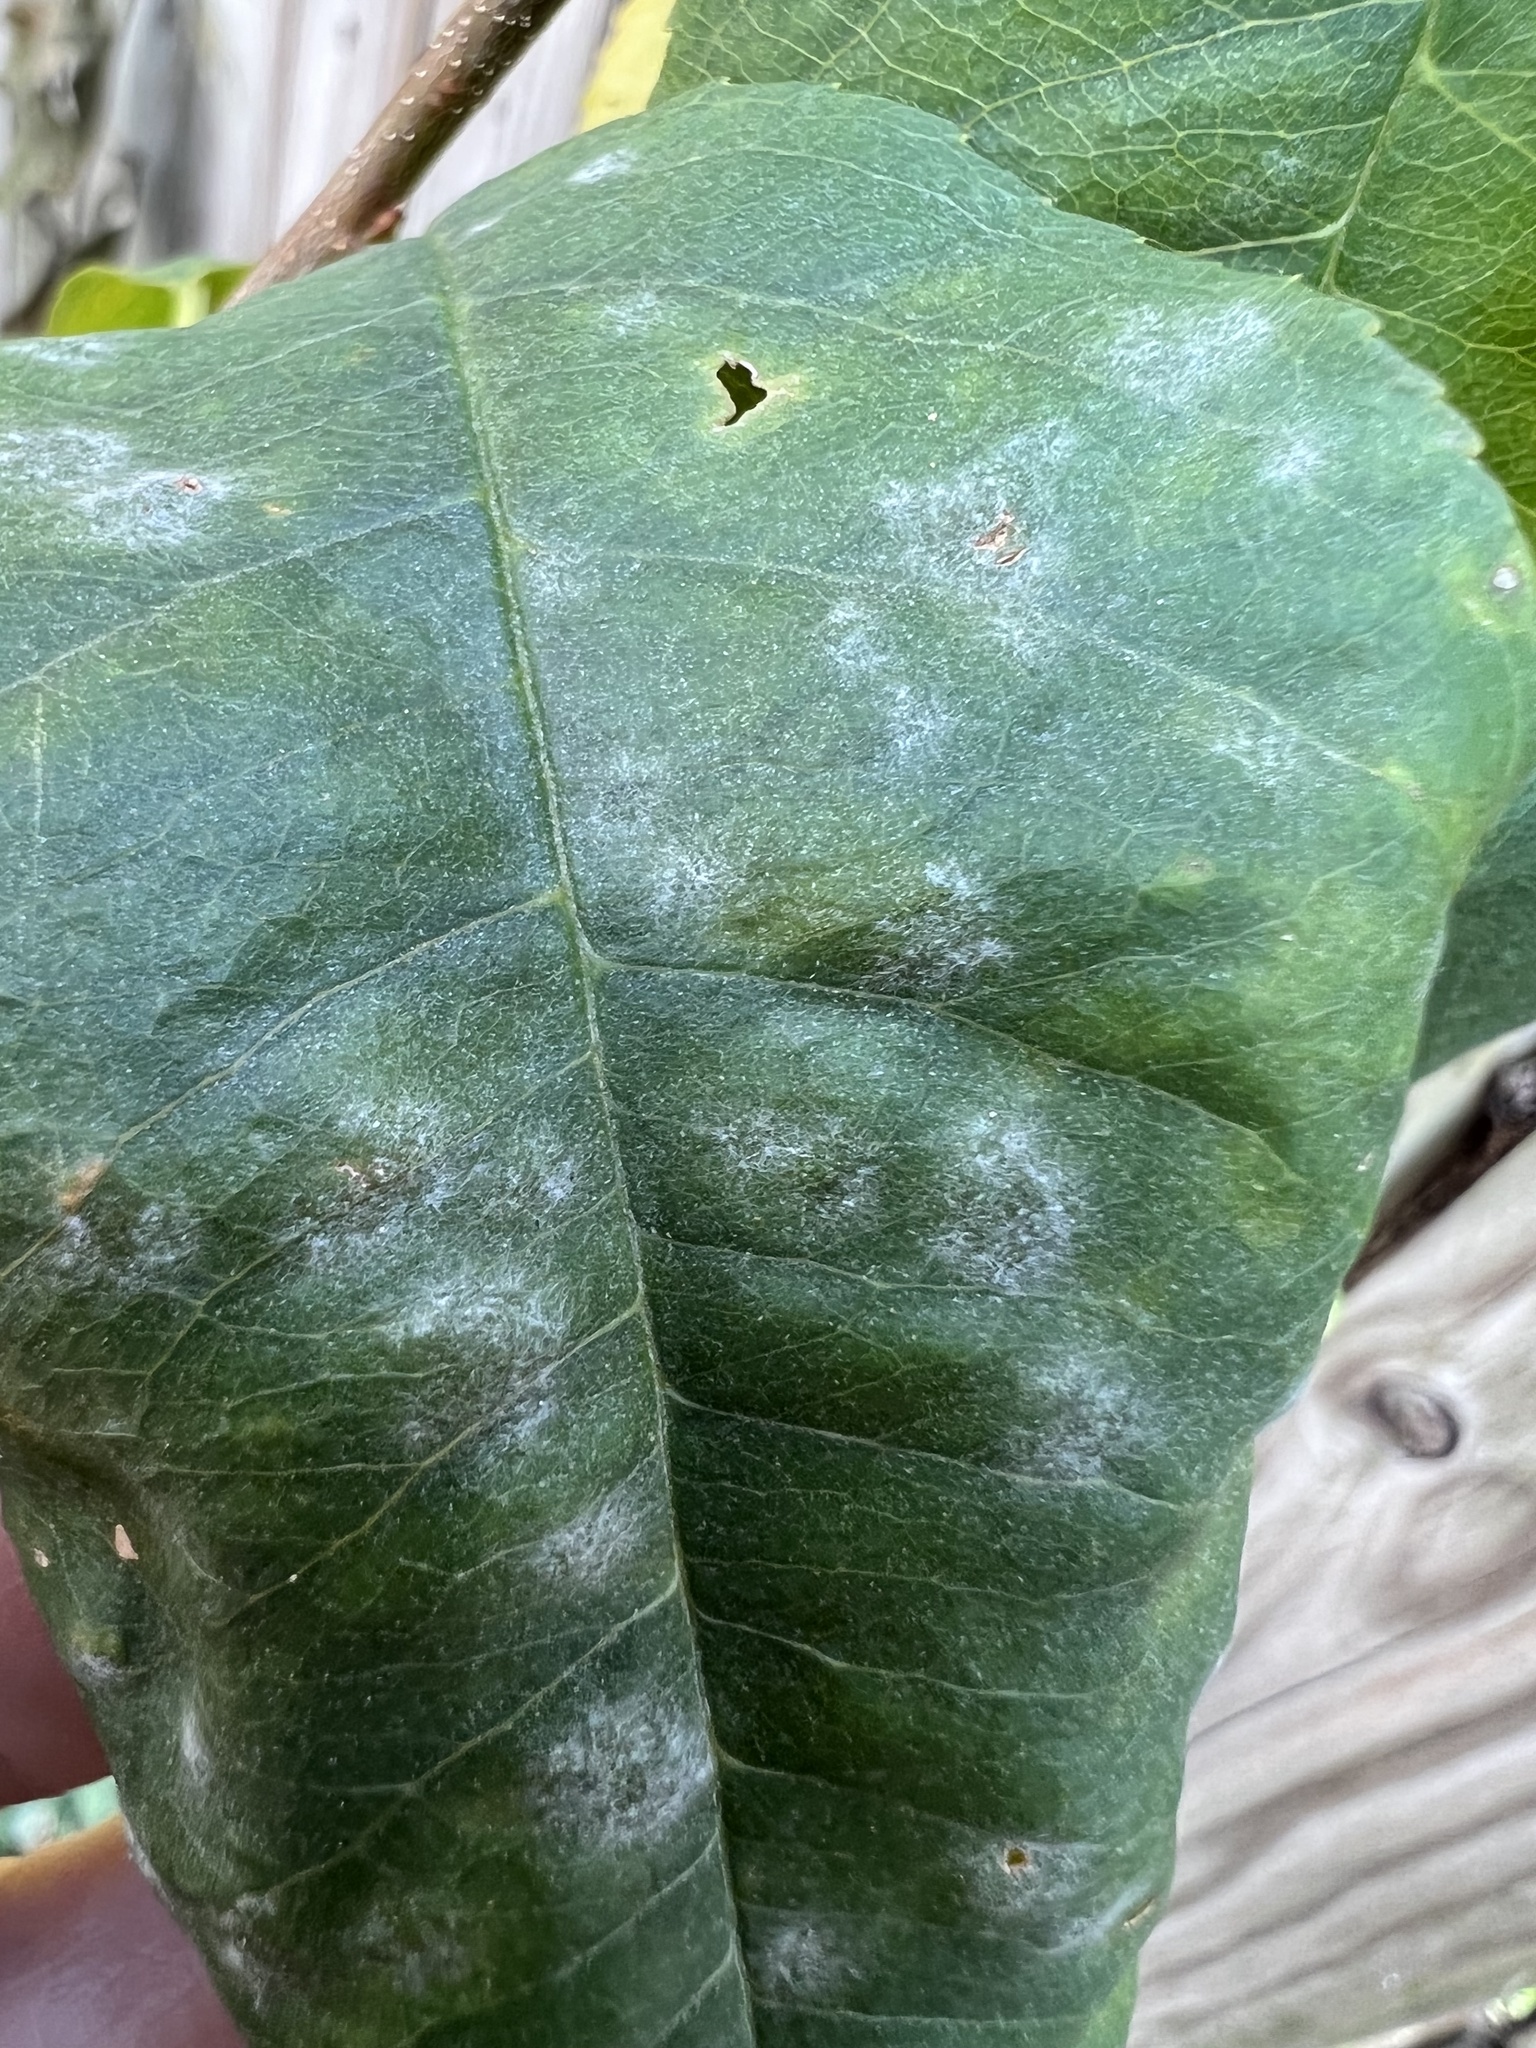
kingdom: Fungi
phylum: Ascomycota
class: Leotiomycetes
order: Helotiales
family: Erysiphaceae
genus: Podosphaera
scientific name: Podosphaera prunicola
